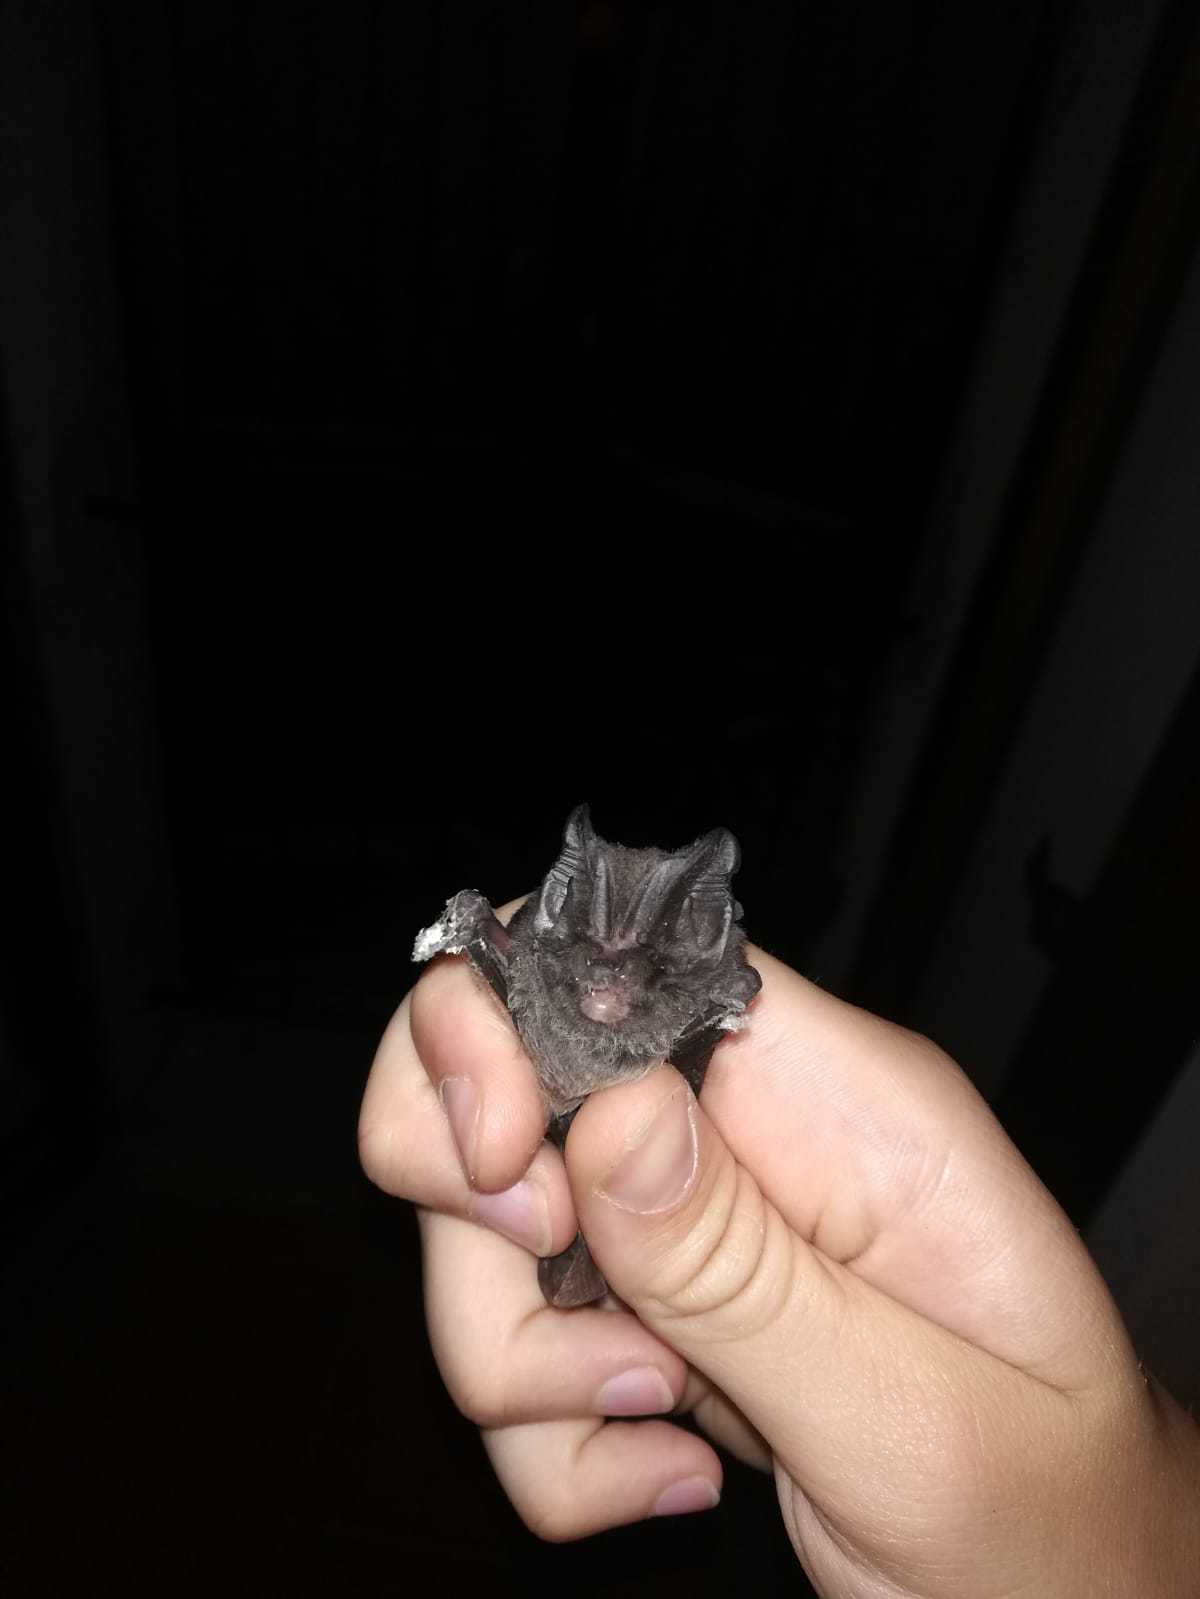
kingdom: Animalia
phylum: Chordata
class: Mammalia
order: Chiroptera
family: Vespertilionidae
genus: Barbastella
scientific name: Barbastella barbastellus
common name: Western barbastelle
